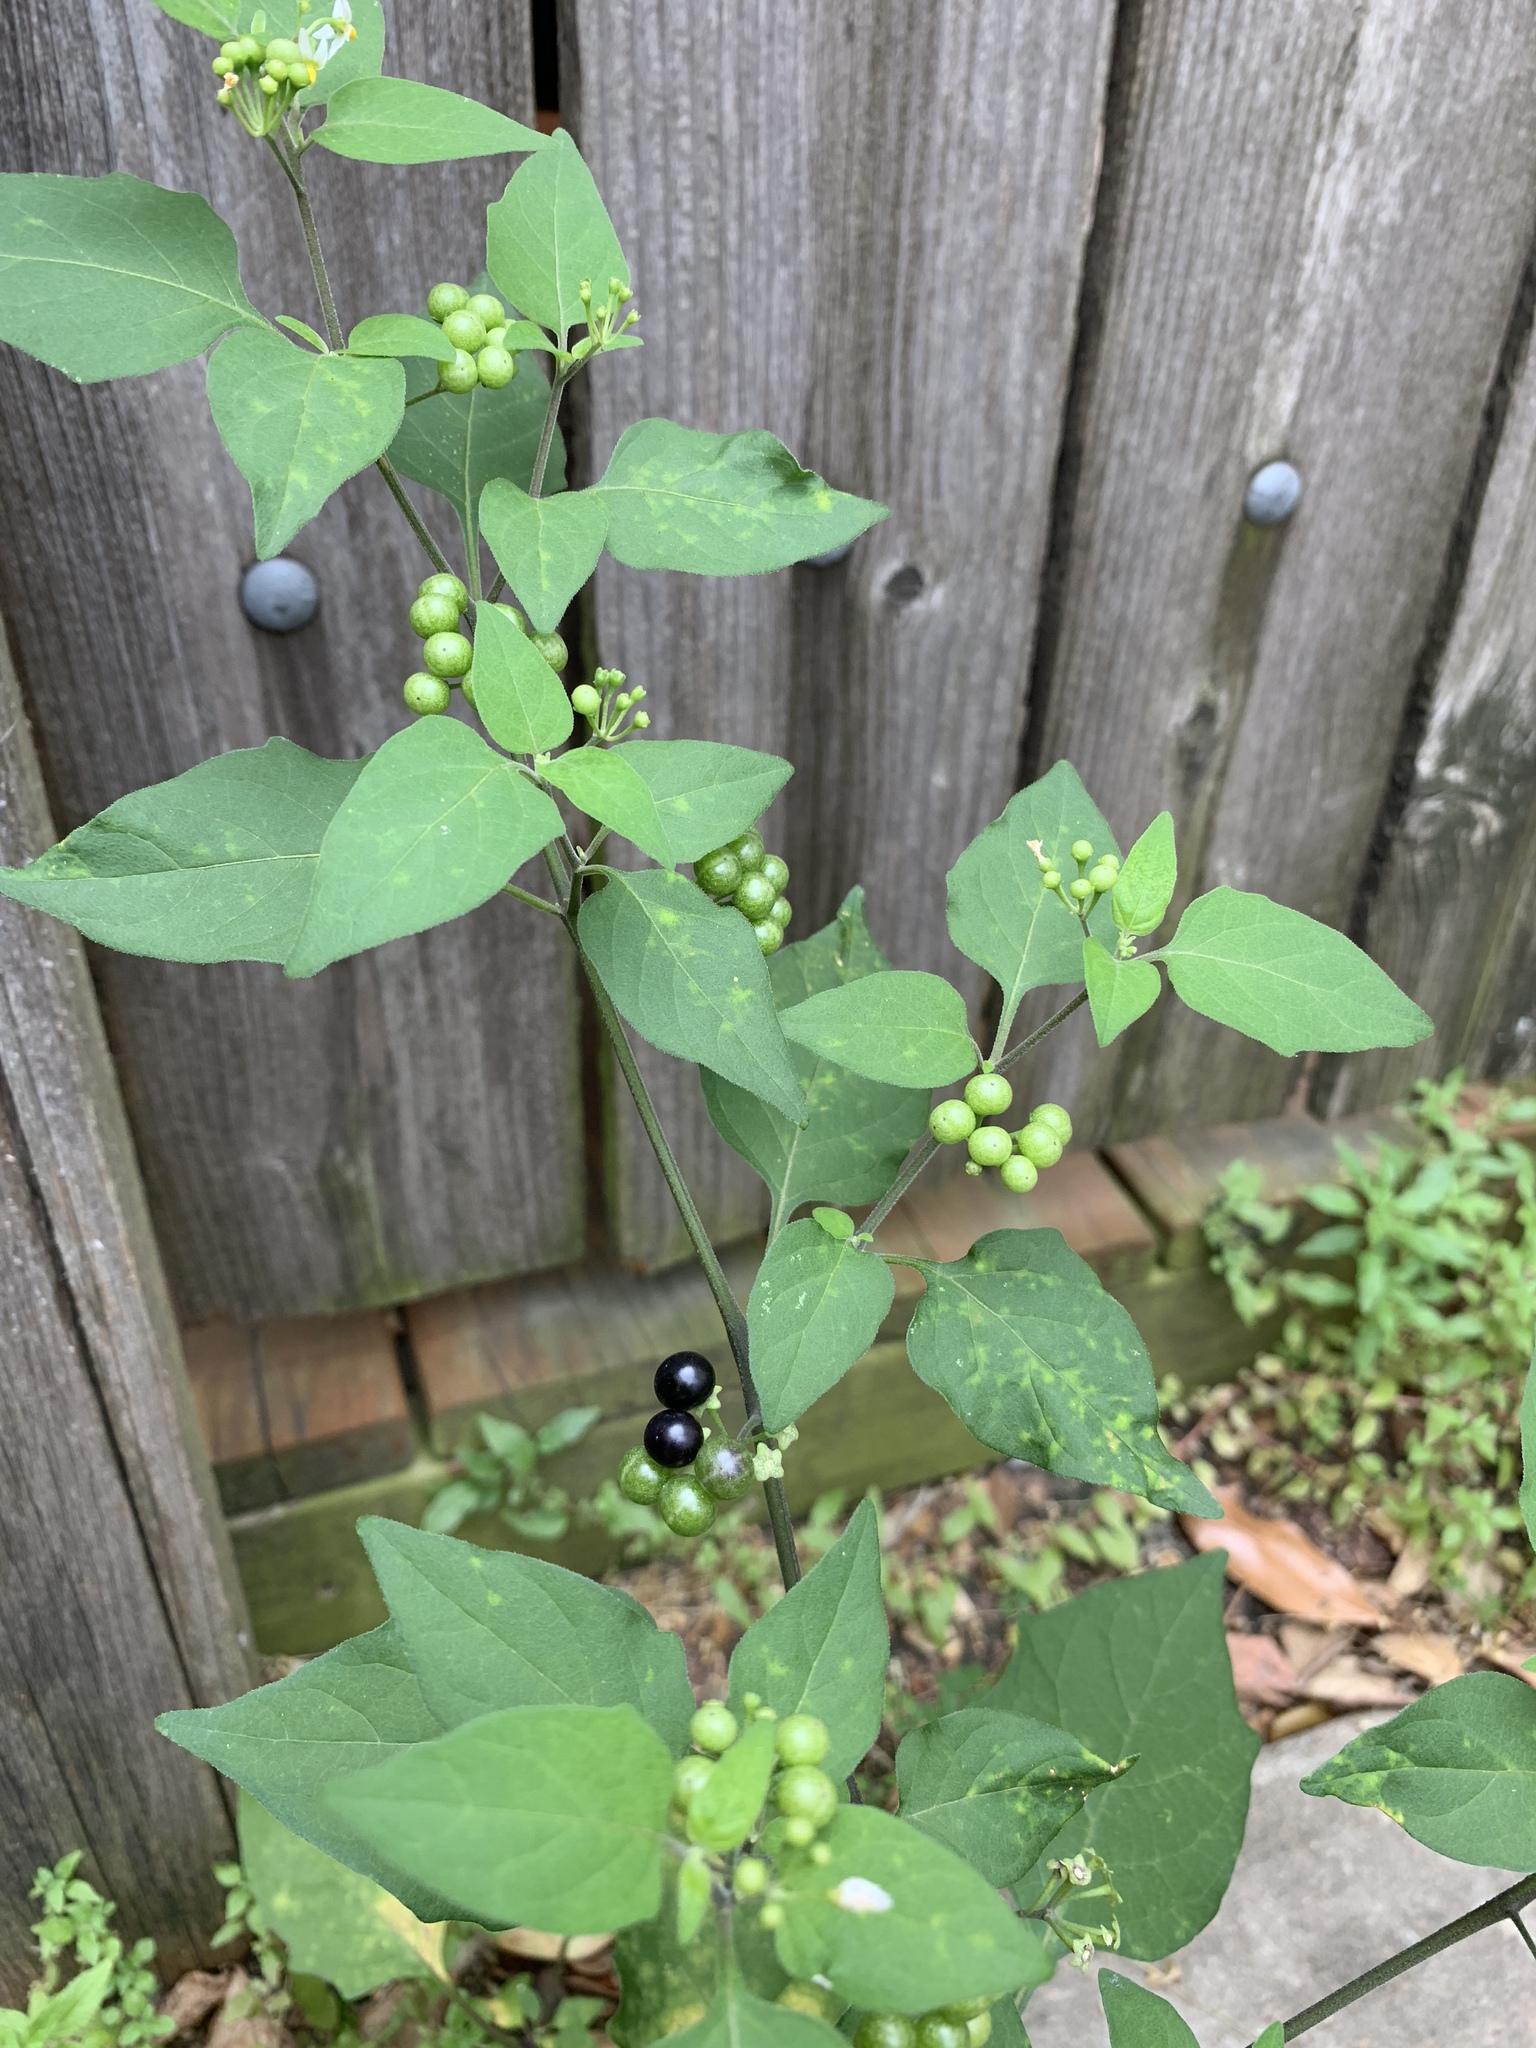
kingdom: Plantae
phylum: Tracheophyta
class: Magnoliopsida
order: Solanales
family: Solanaceae
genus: Solanum
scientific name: Solanum americanum
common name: American black nightshade
